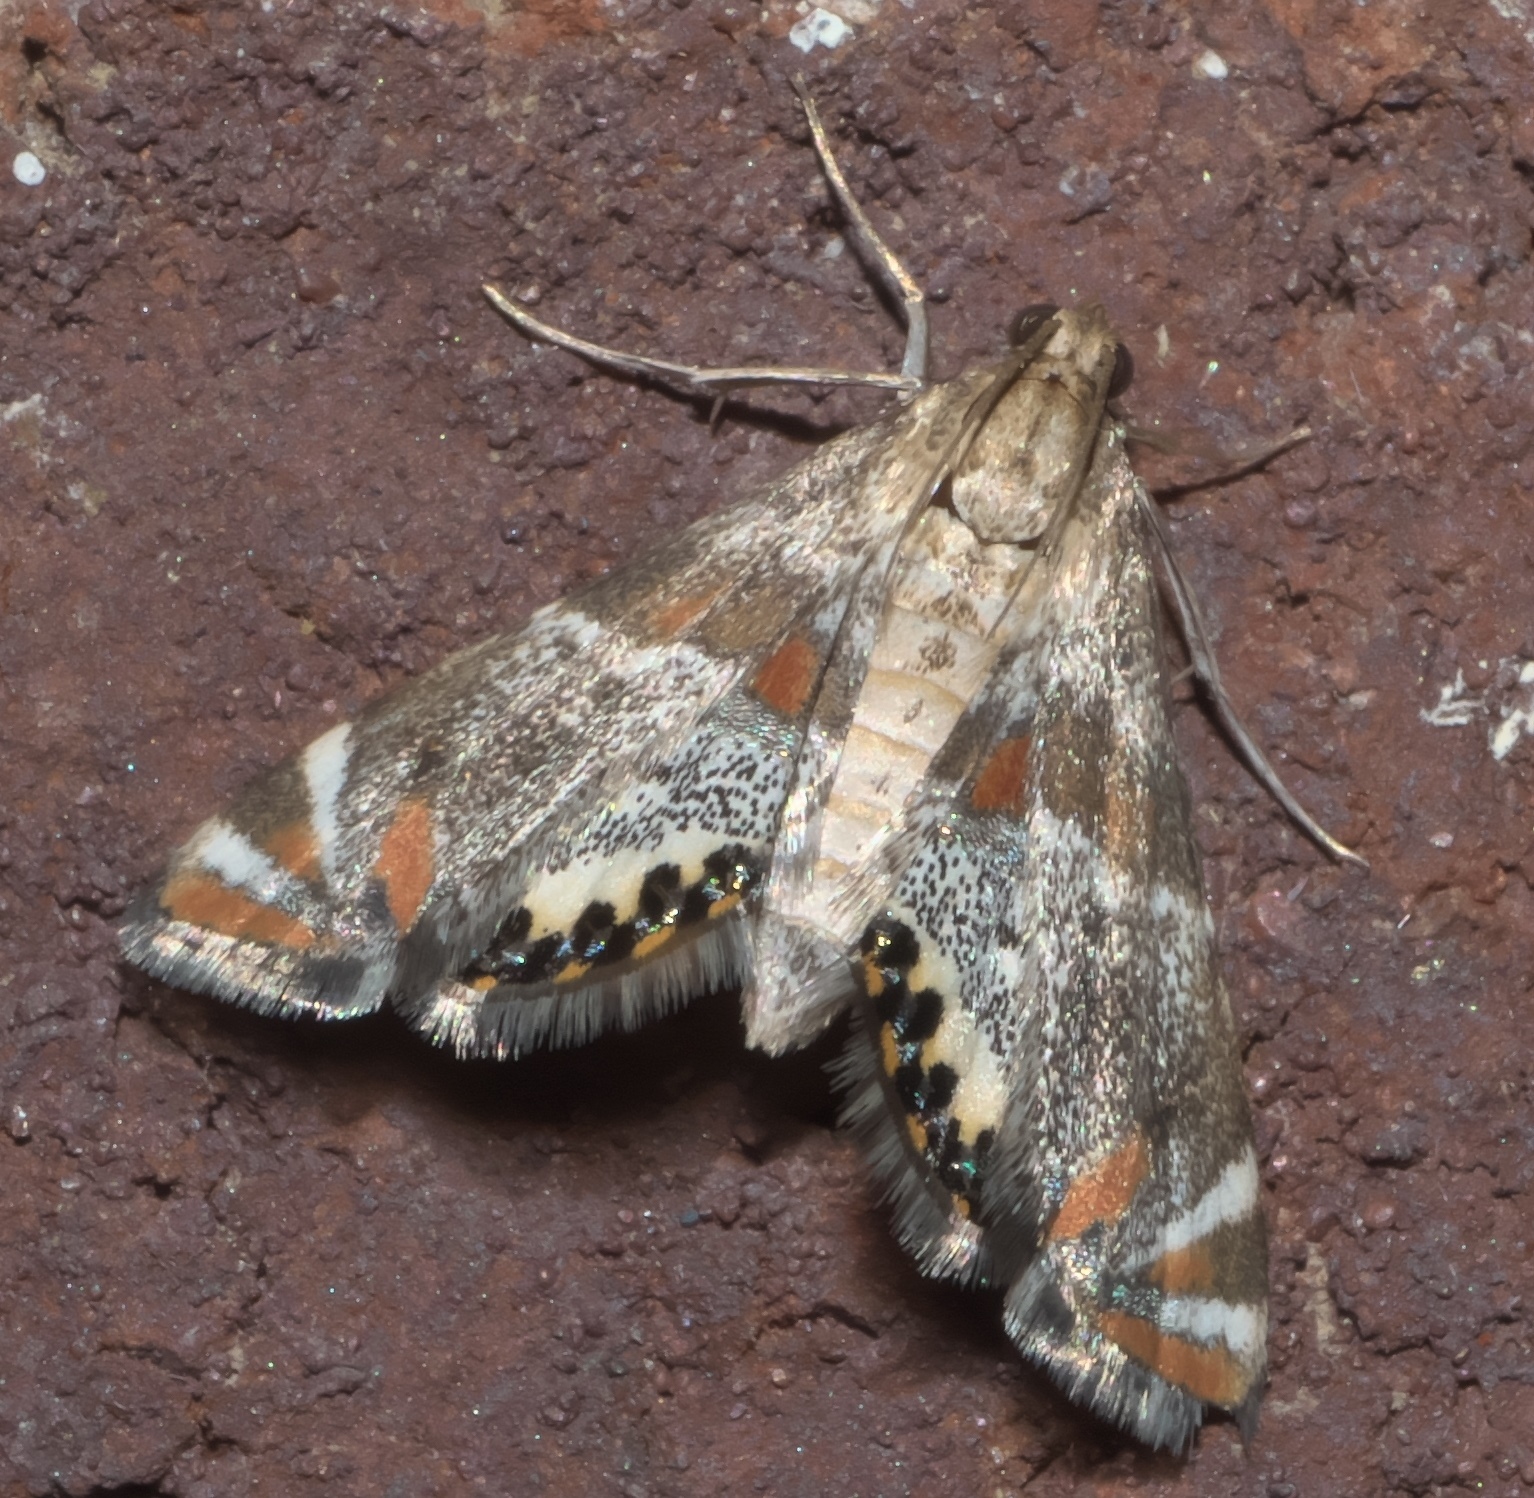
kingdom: Animalia
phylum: Arthropoda
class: Insecta
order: Lepidoptera
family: Crambidae
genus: Petrophila
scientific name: Petrophila jaliscalis
